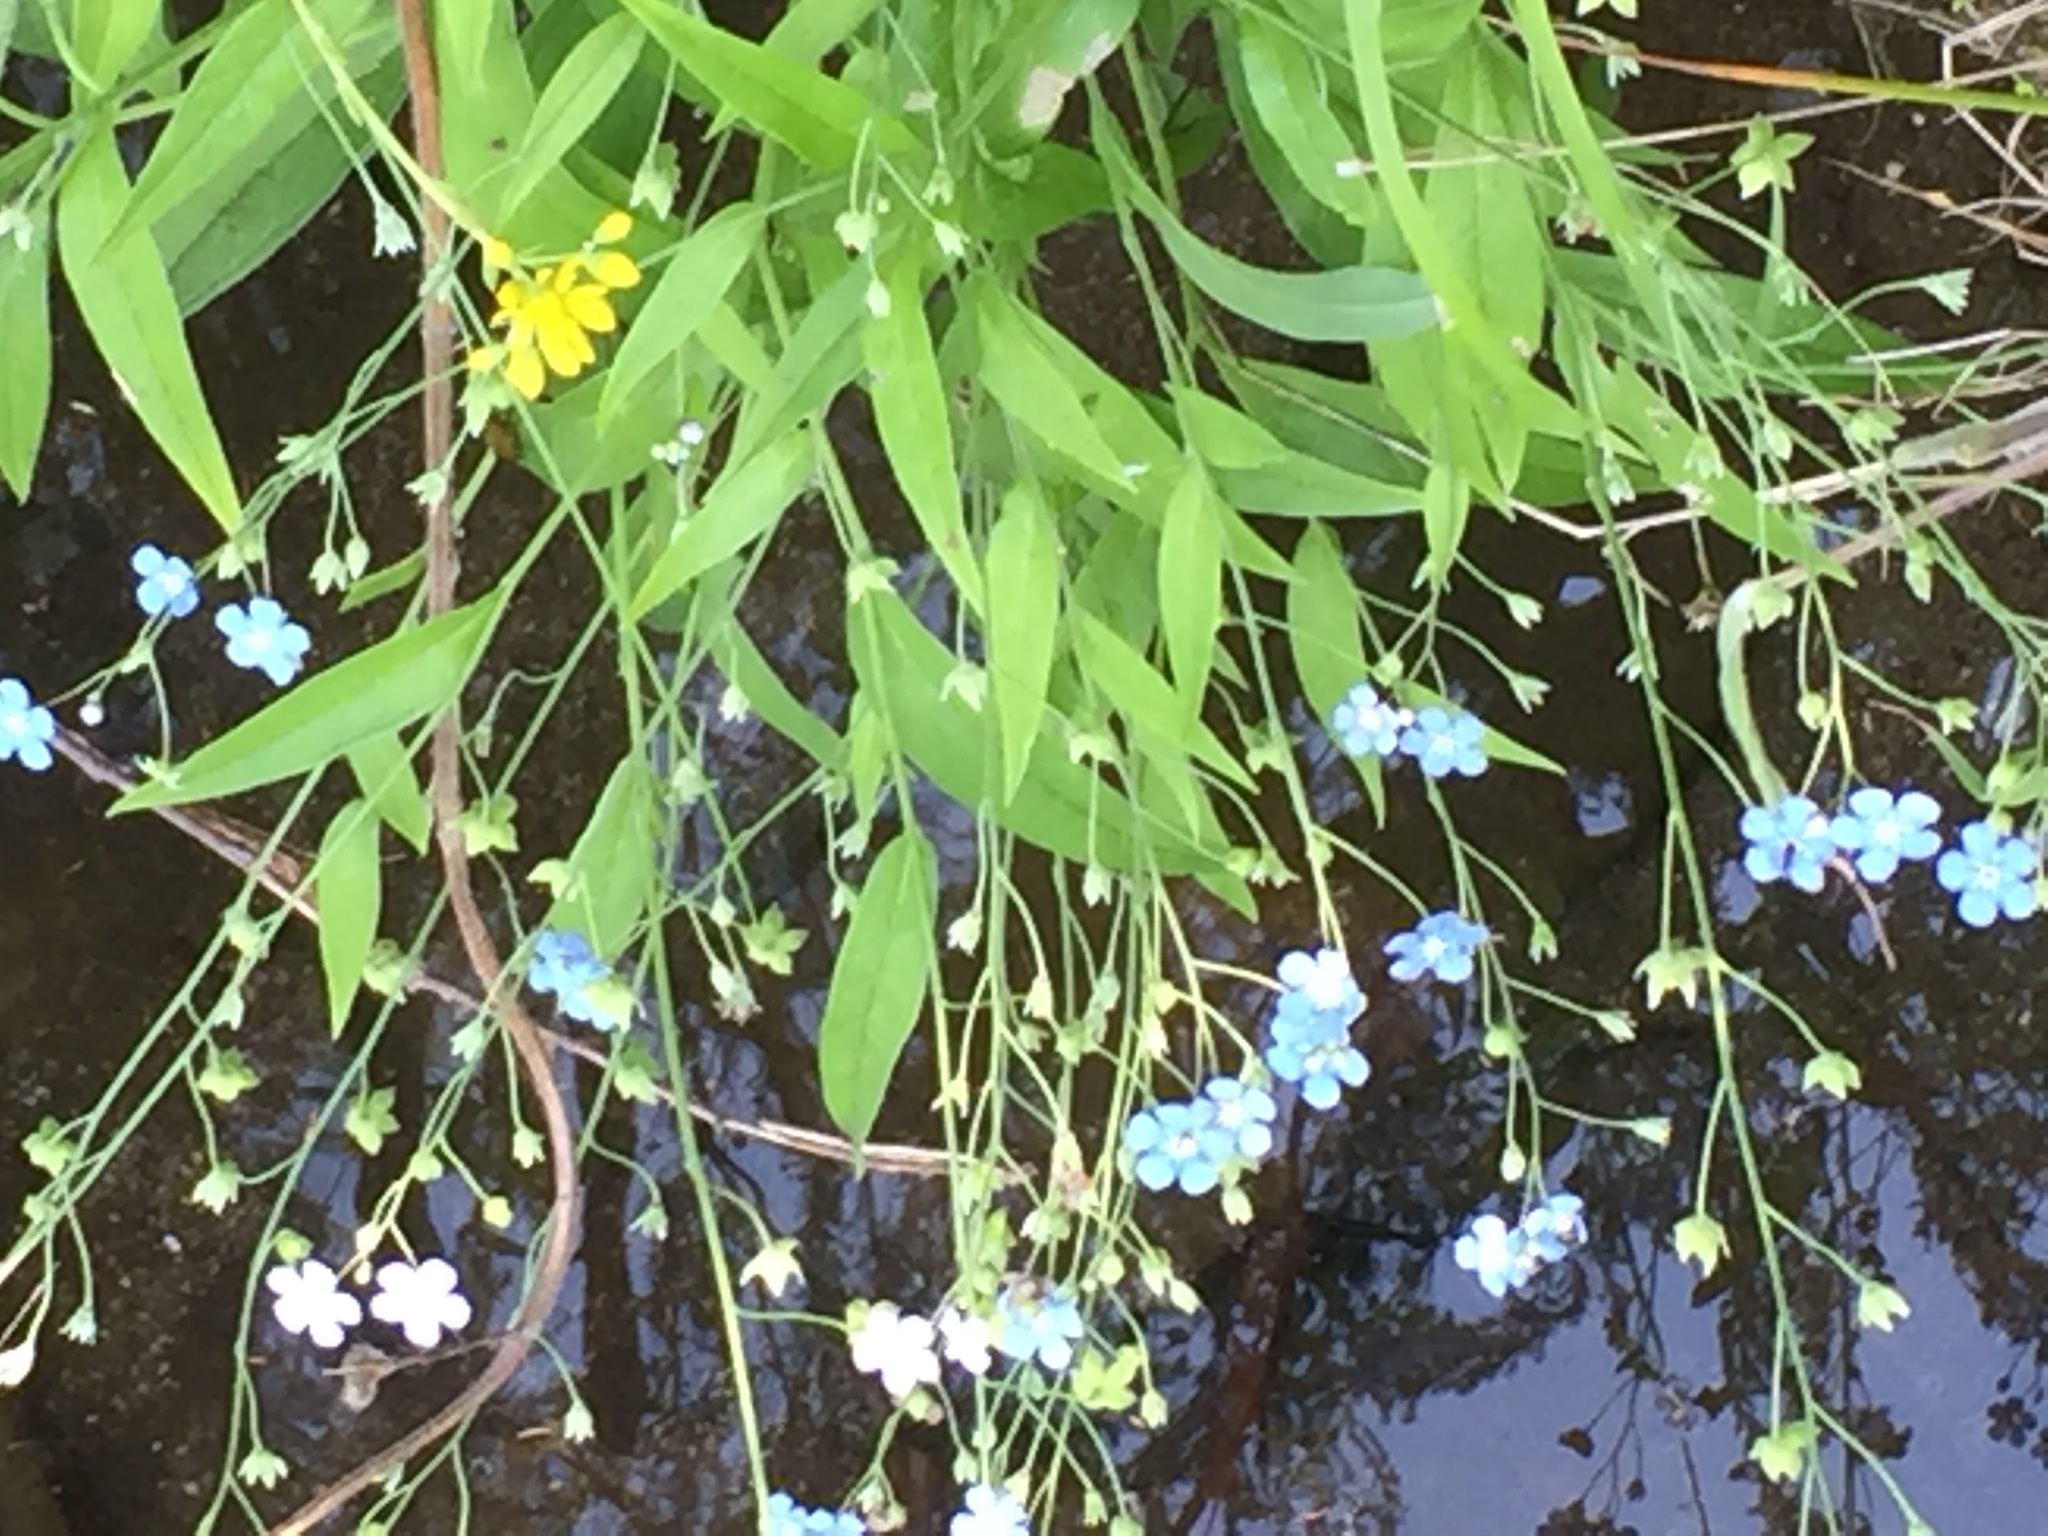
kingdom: Plantae
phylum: Tracheophyta
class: Magnoliopsida
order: Boraginales
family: Boraginaceae
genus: Omphalodes
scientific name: Omphalodes nitida
